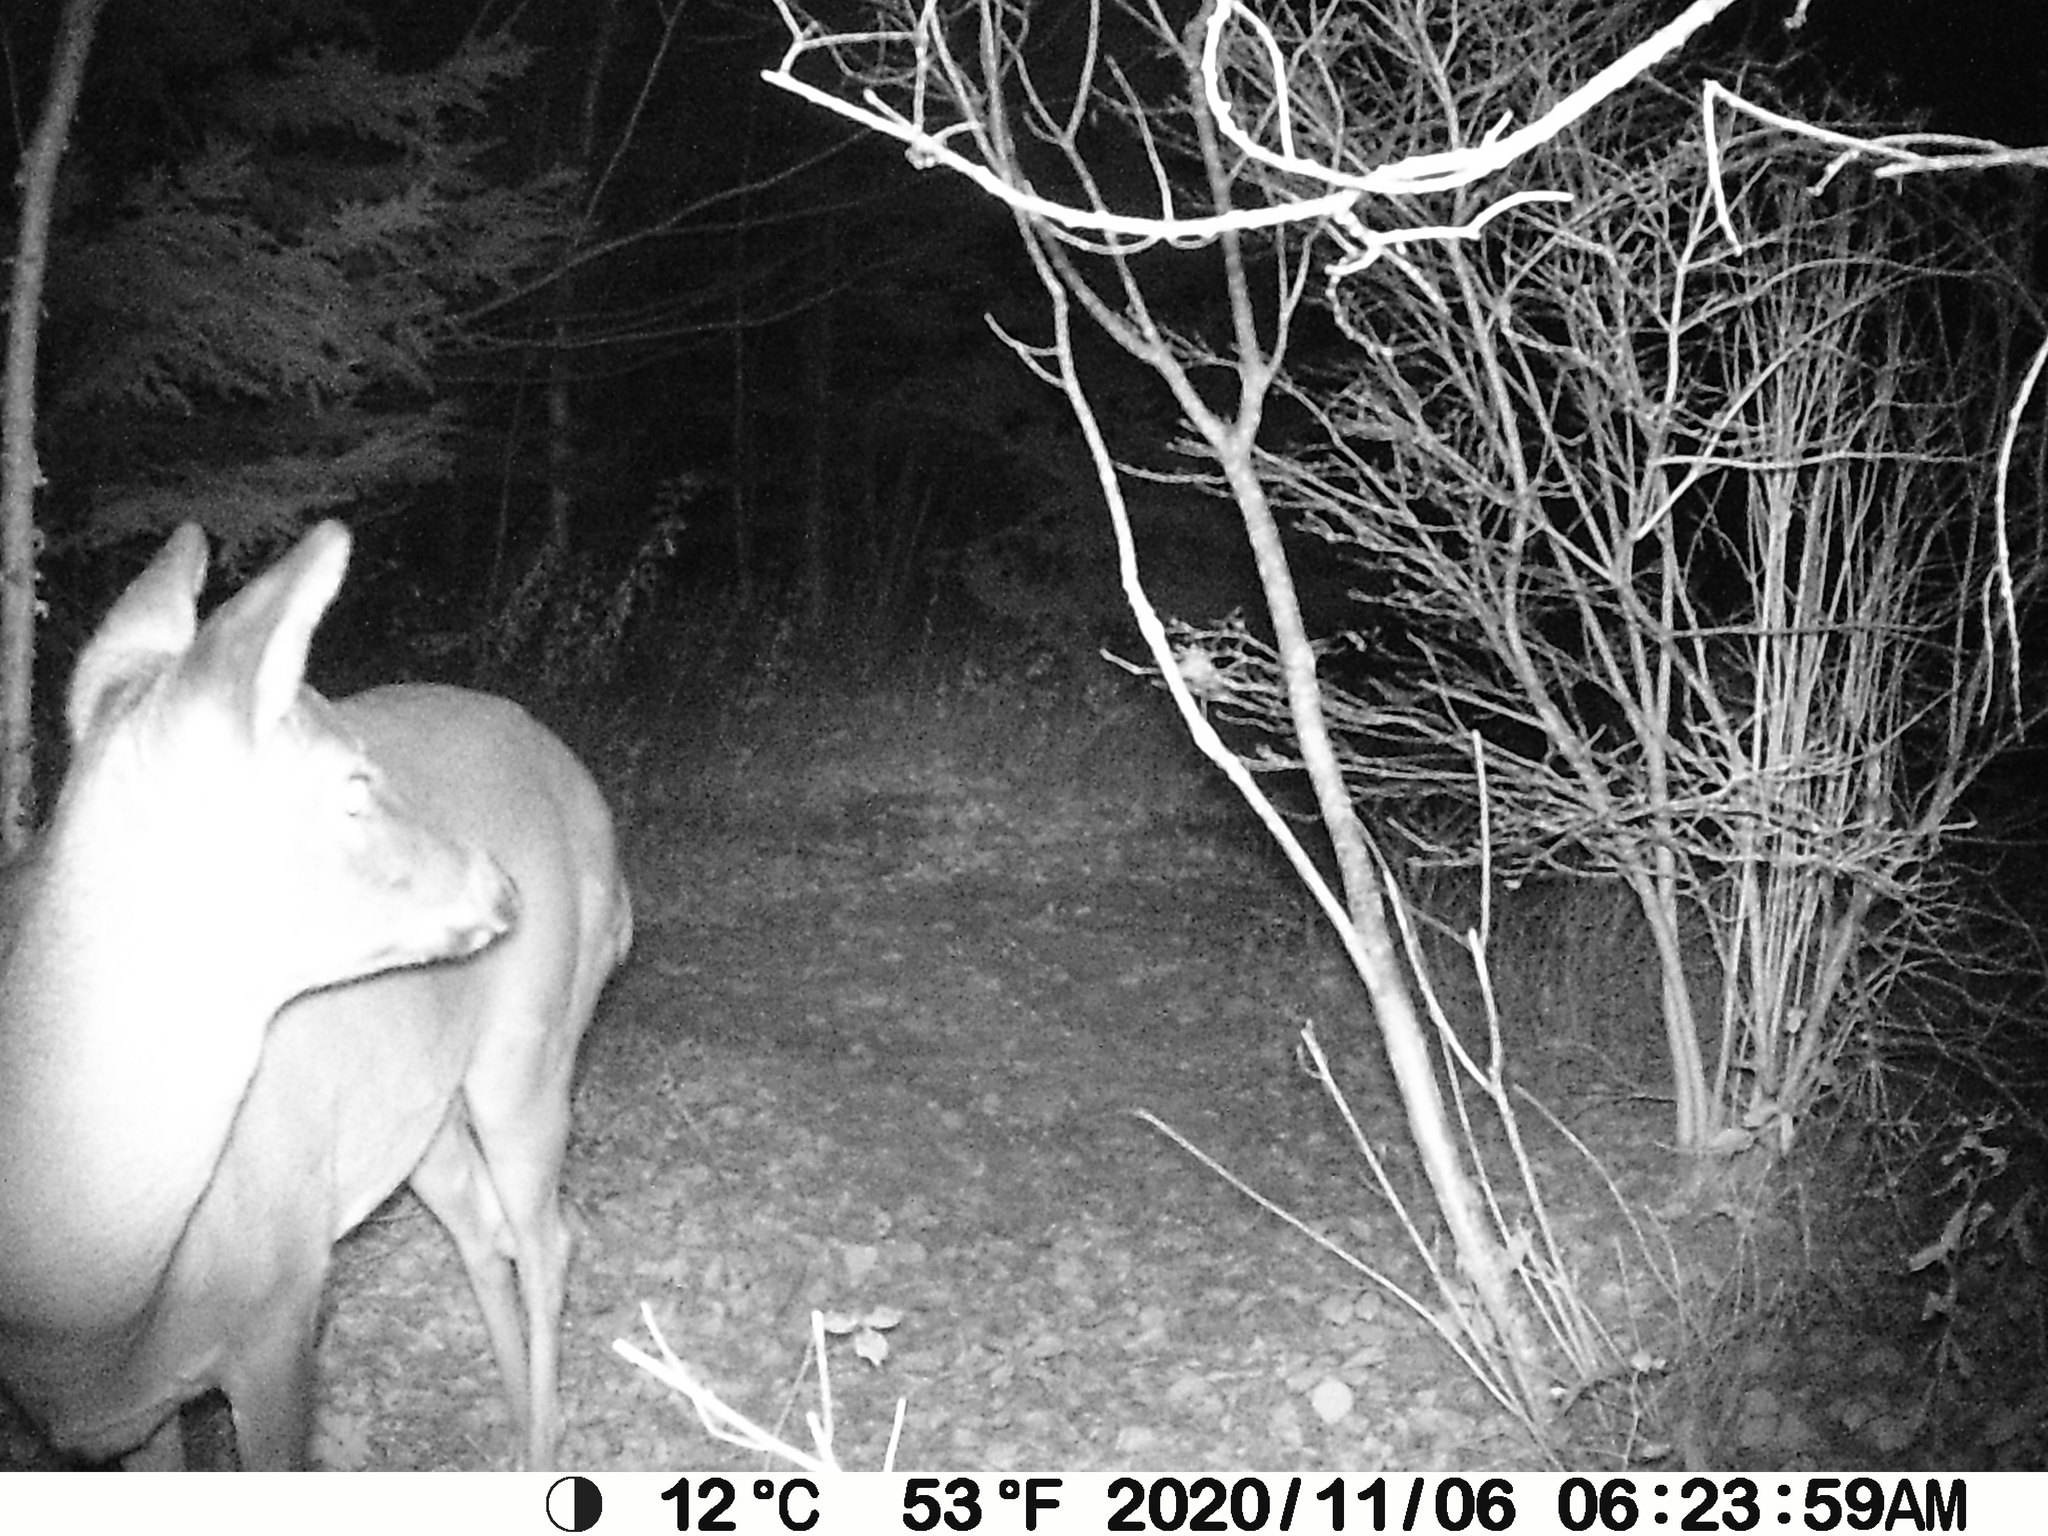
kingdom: Animalia
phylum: Chordata
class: Mammalia
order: Artiodactyla
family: Cervidae
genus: Odocoileus
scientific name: Odocoileus virginianus
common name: White-tailed deer
